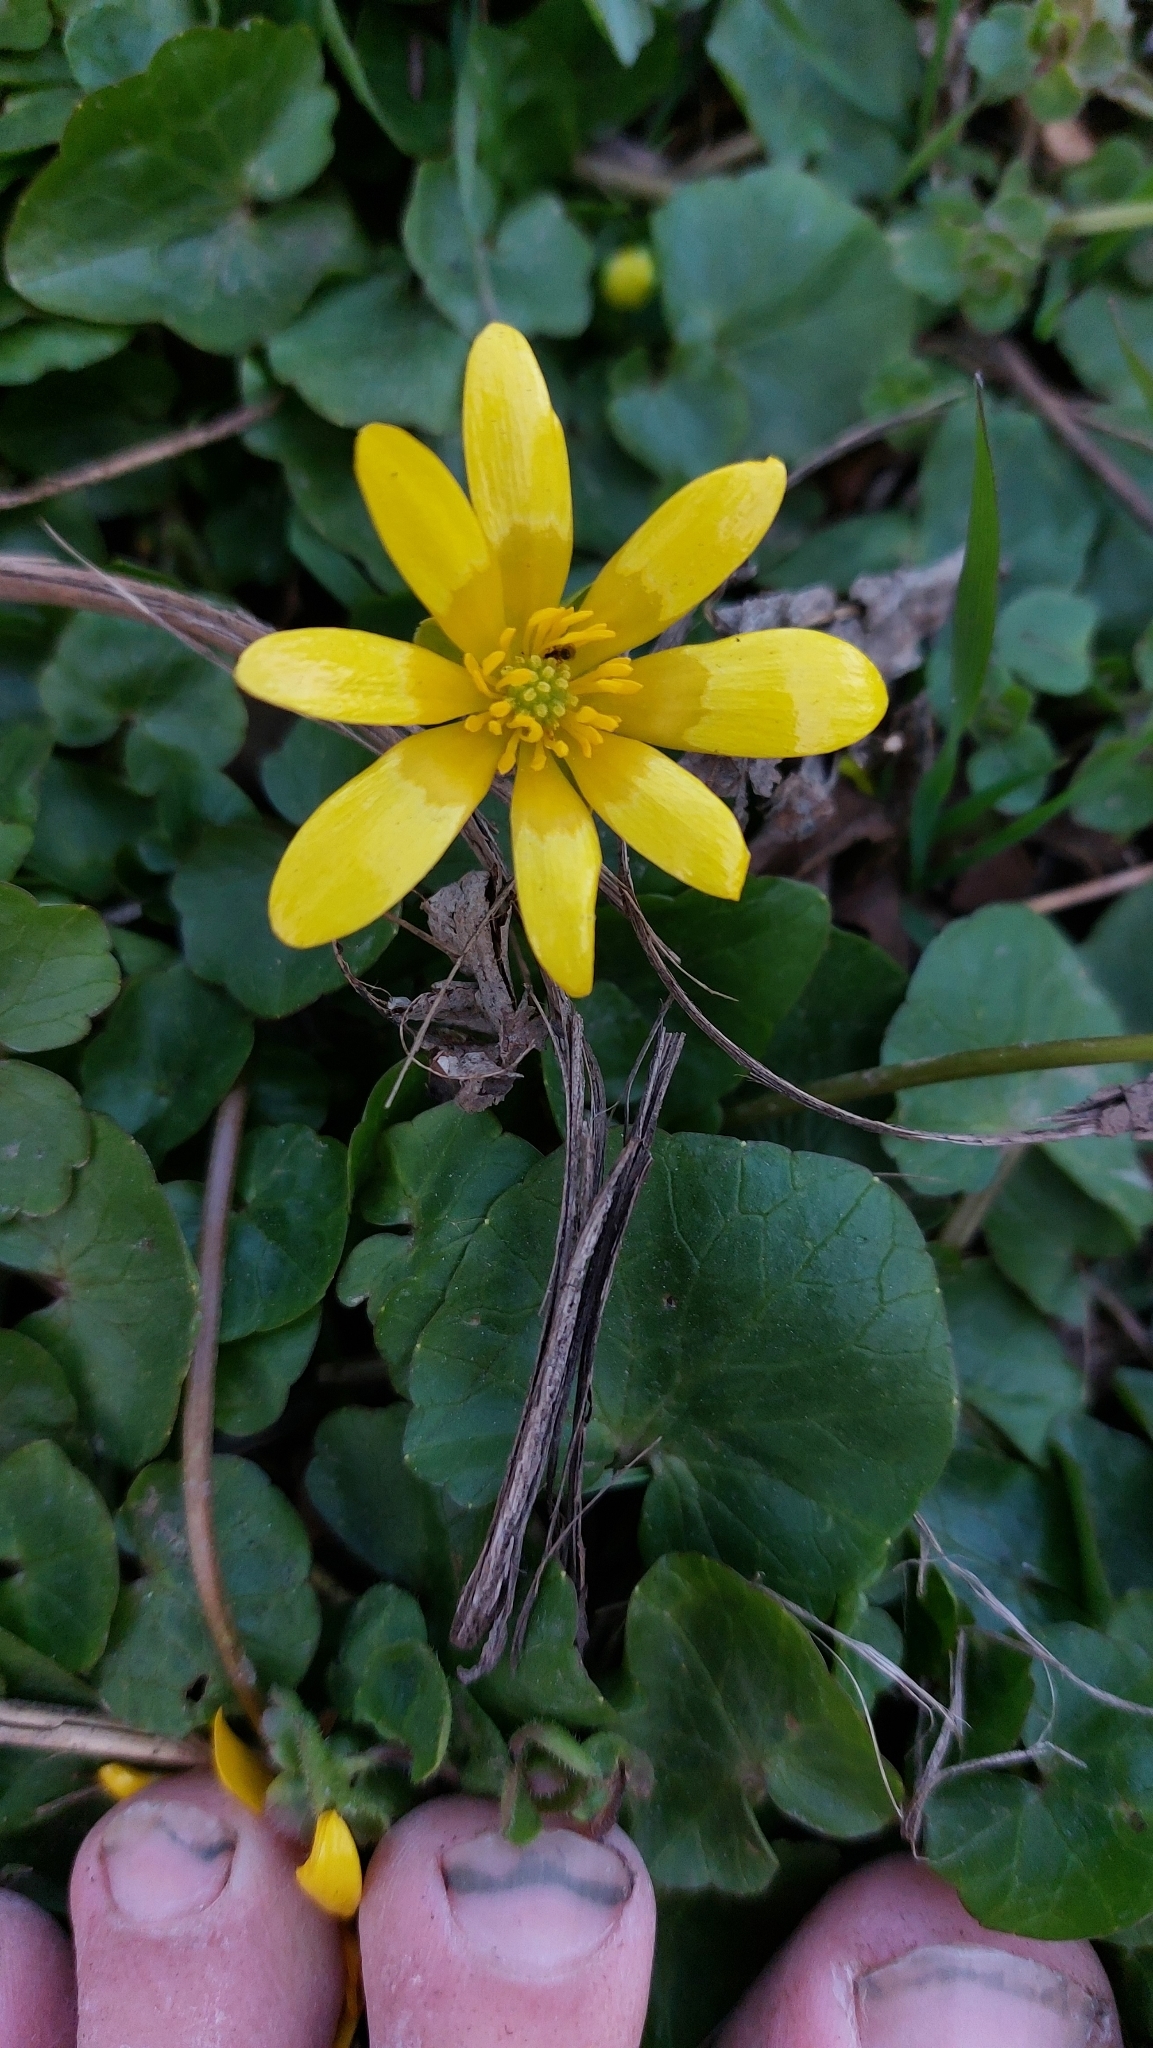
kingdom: Plantae
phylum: Tracheophyta
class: Magnoliopsida
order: Ranunculales
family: Ranunculaceae
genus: Ficaria
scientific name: Ficaria verna
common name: Lesser celandine
